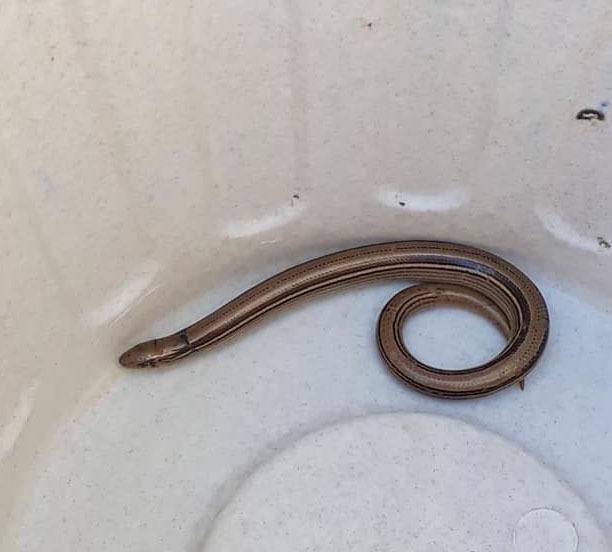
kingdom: Animalia
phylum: Chordata
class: Squamata
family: Diploglossidae
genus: Ophiodes
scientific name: Ophiodes vertebralis
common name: Jointed worm lizard
